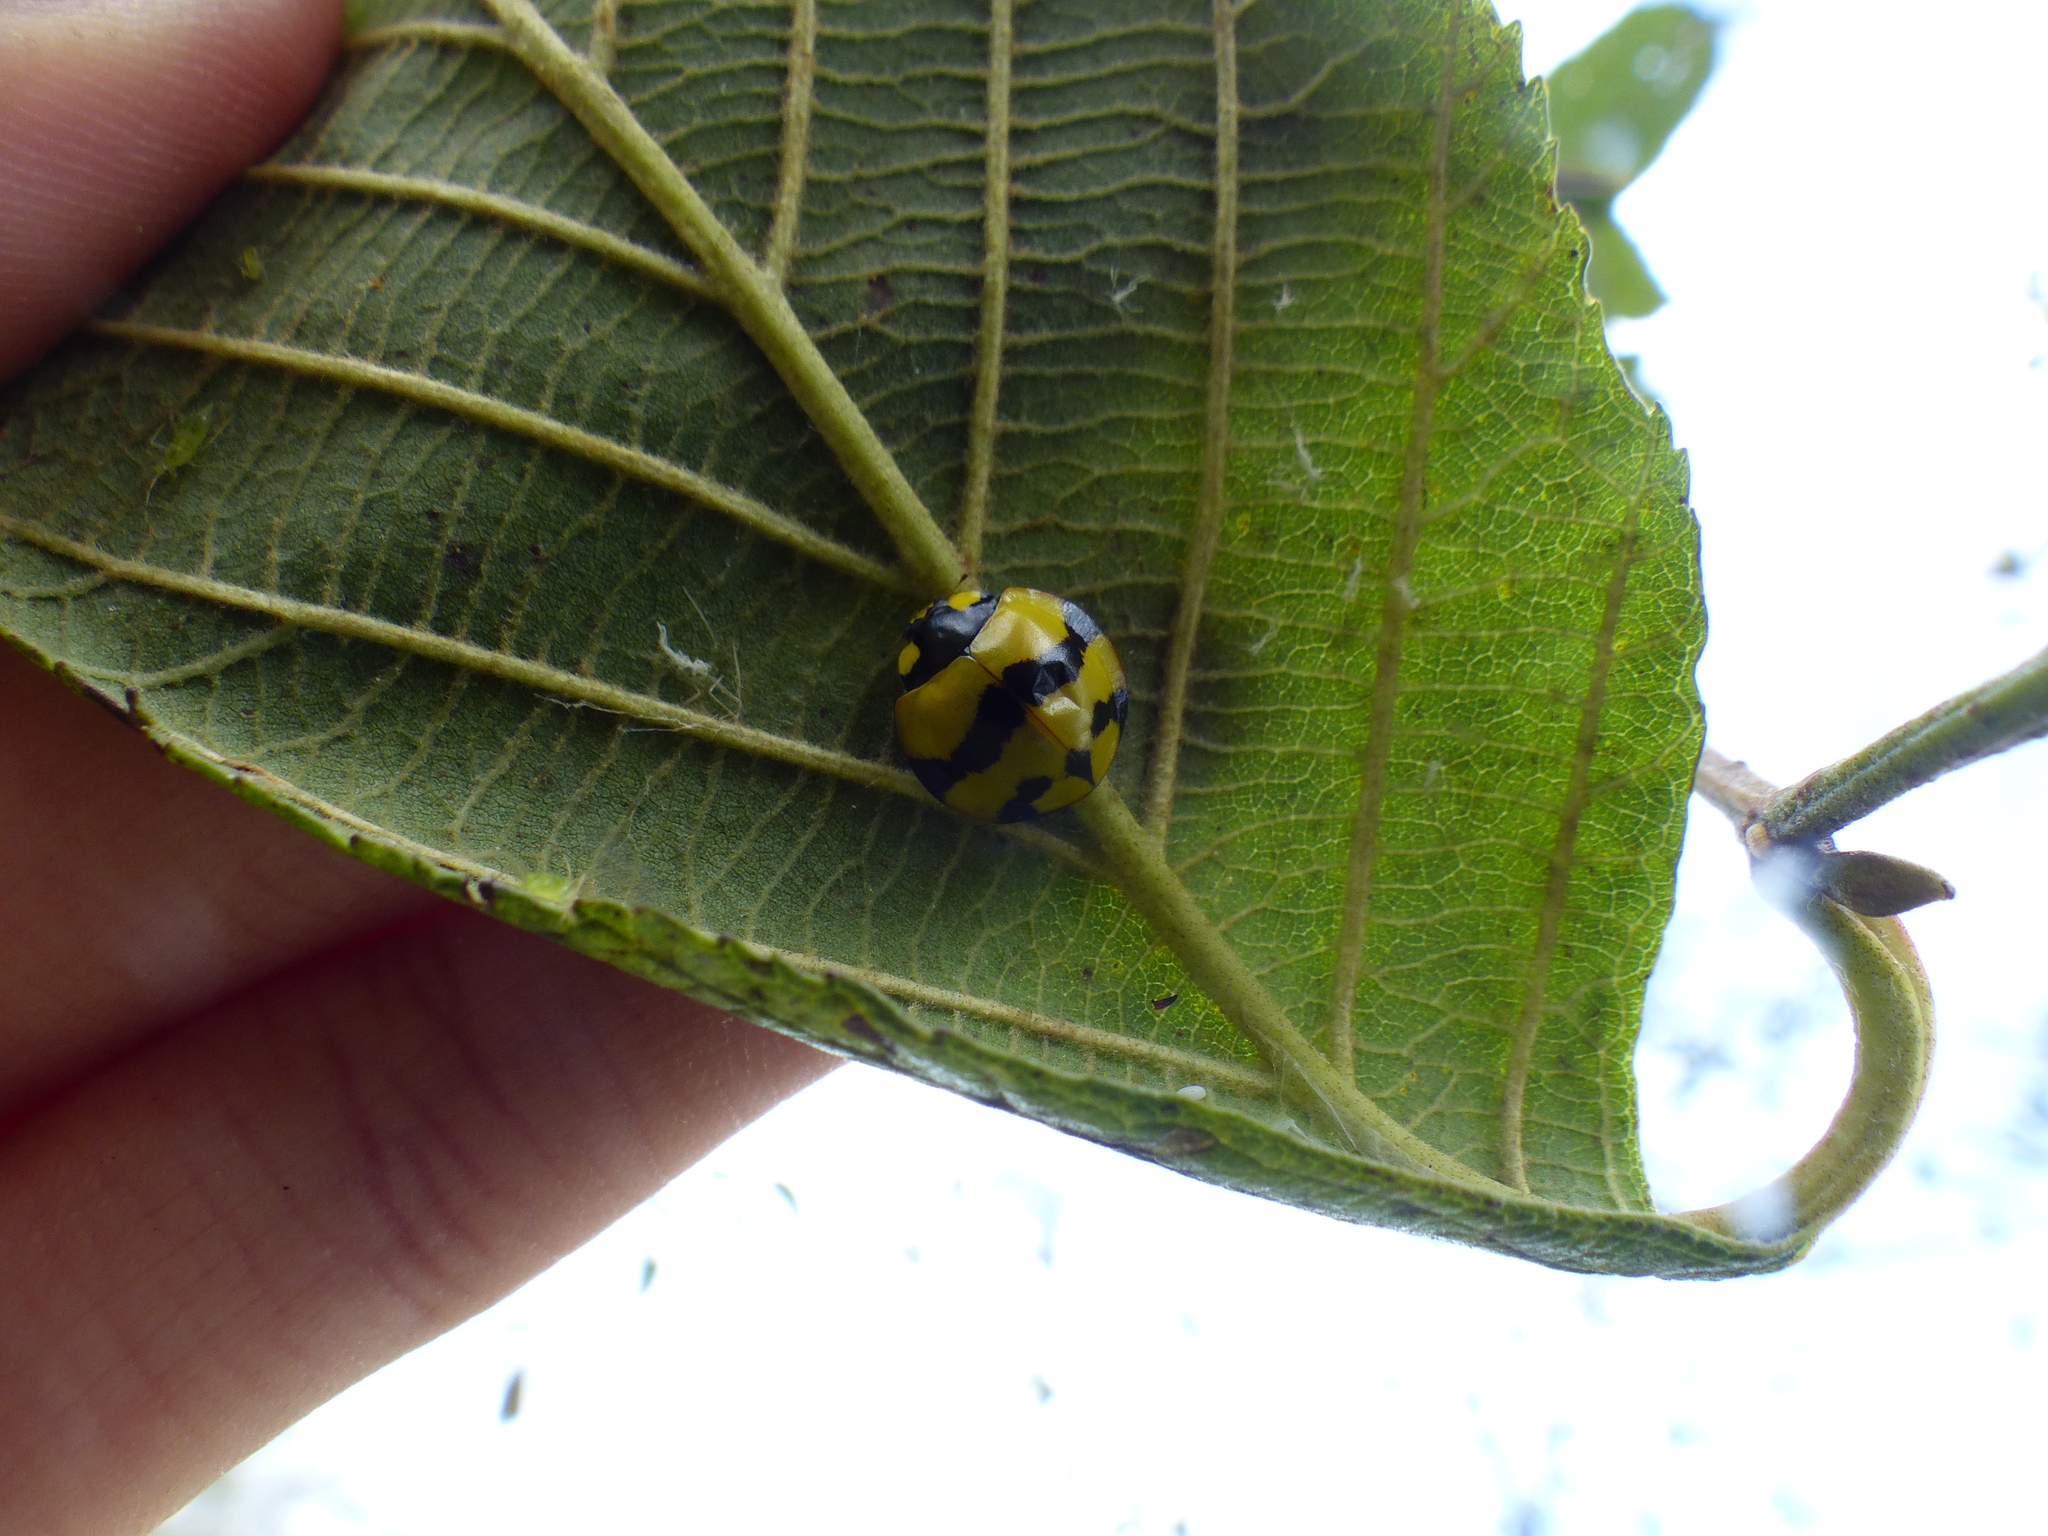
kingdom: Animalia
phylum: Arthropoda
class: Insecta
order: Coleoptera
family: Coccinellidae
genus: Neda
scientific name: Neda norrisi
